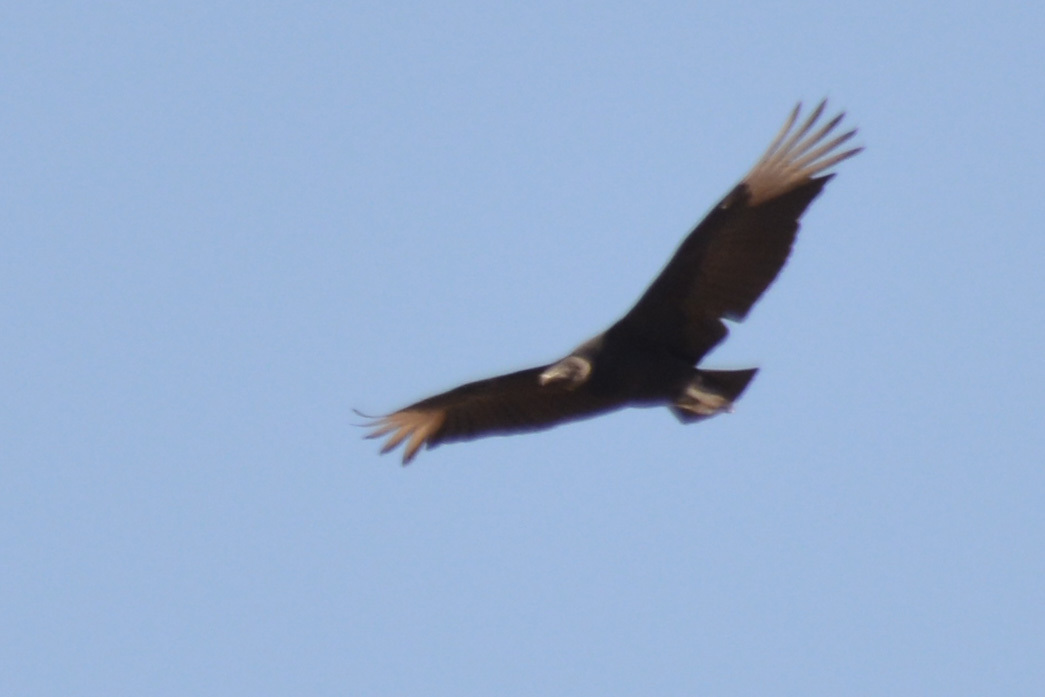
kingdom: Animalia
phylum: Chordata
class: Aves
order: Accipitriformes
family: Cathartidae
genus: Coragyps
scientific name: Coragyps atratus
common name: Black vulture
